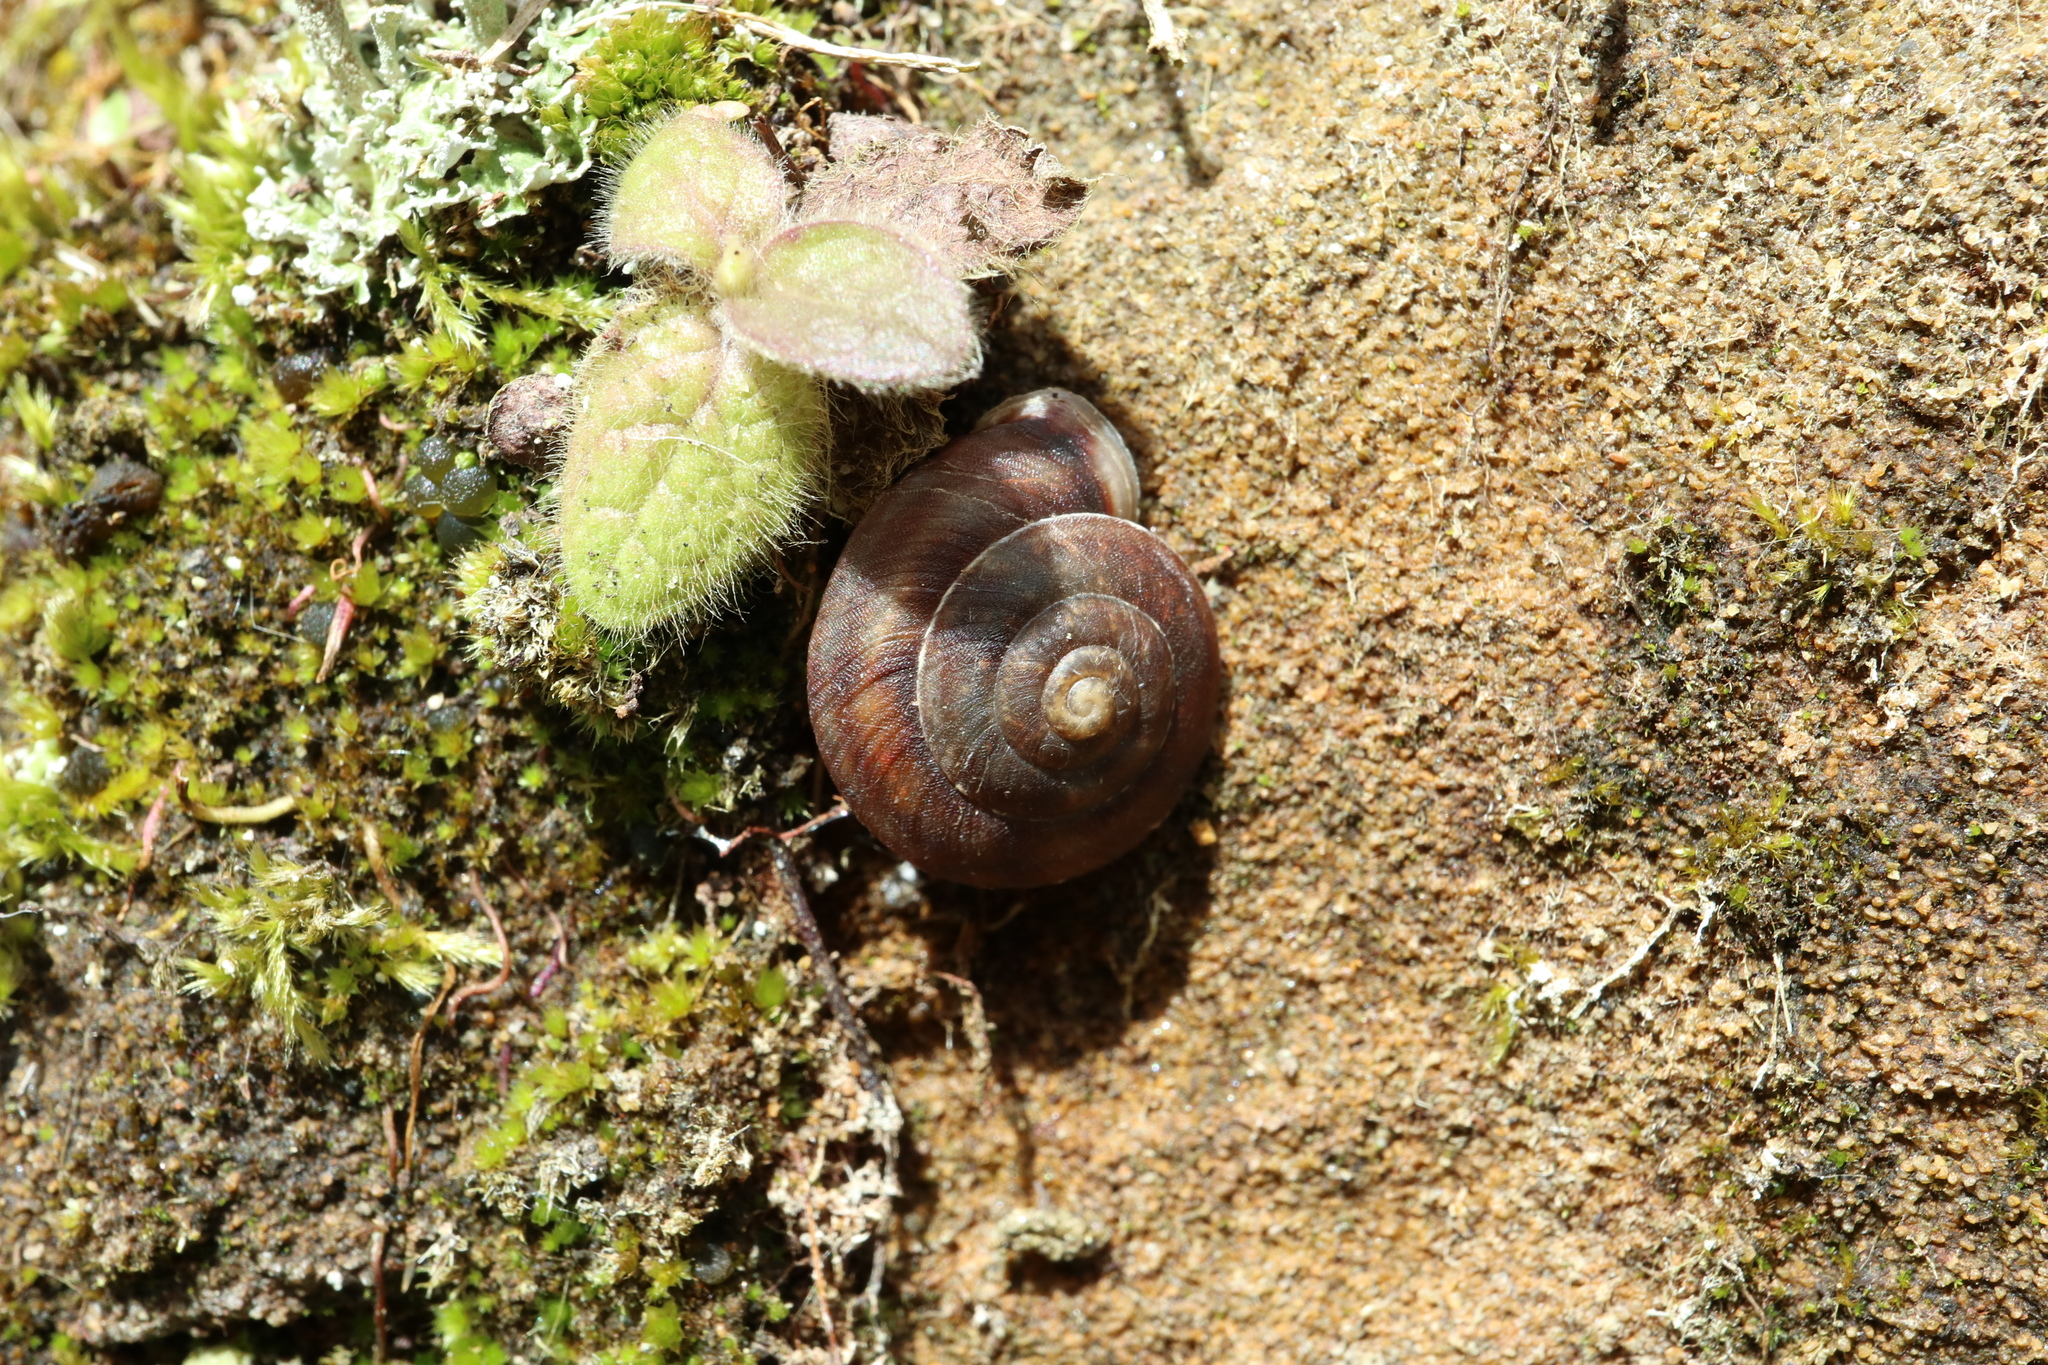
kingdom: Animalia
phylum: Mollusca
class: Gastropoda
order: Stylommatophora
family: Helicidae
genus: Helicigona
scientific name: Helicigona lapicida
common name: Lapidary snail
